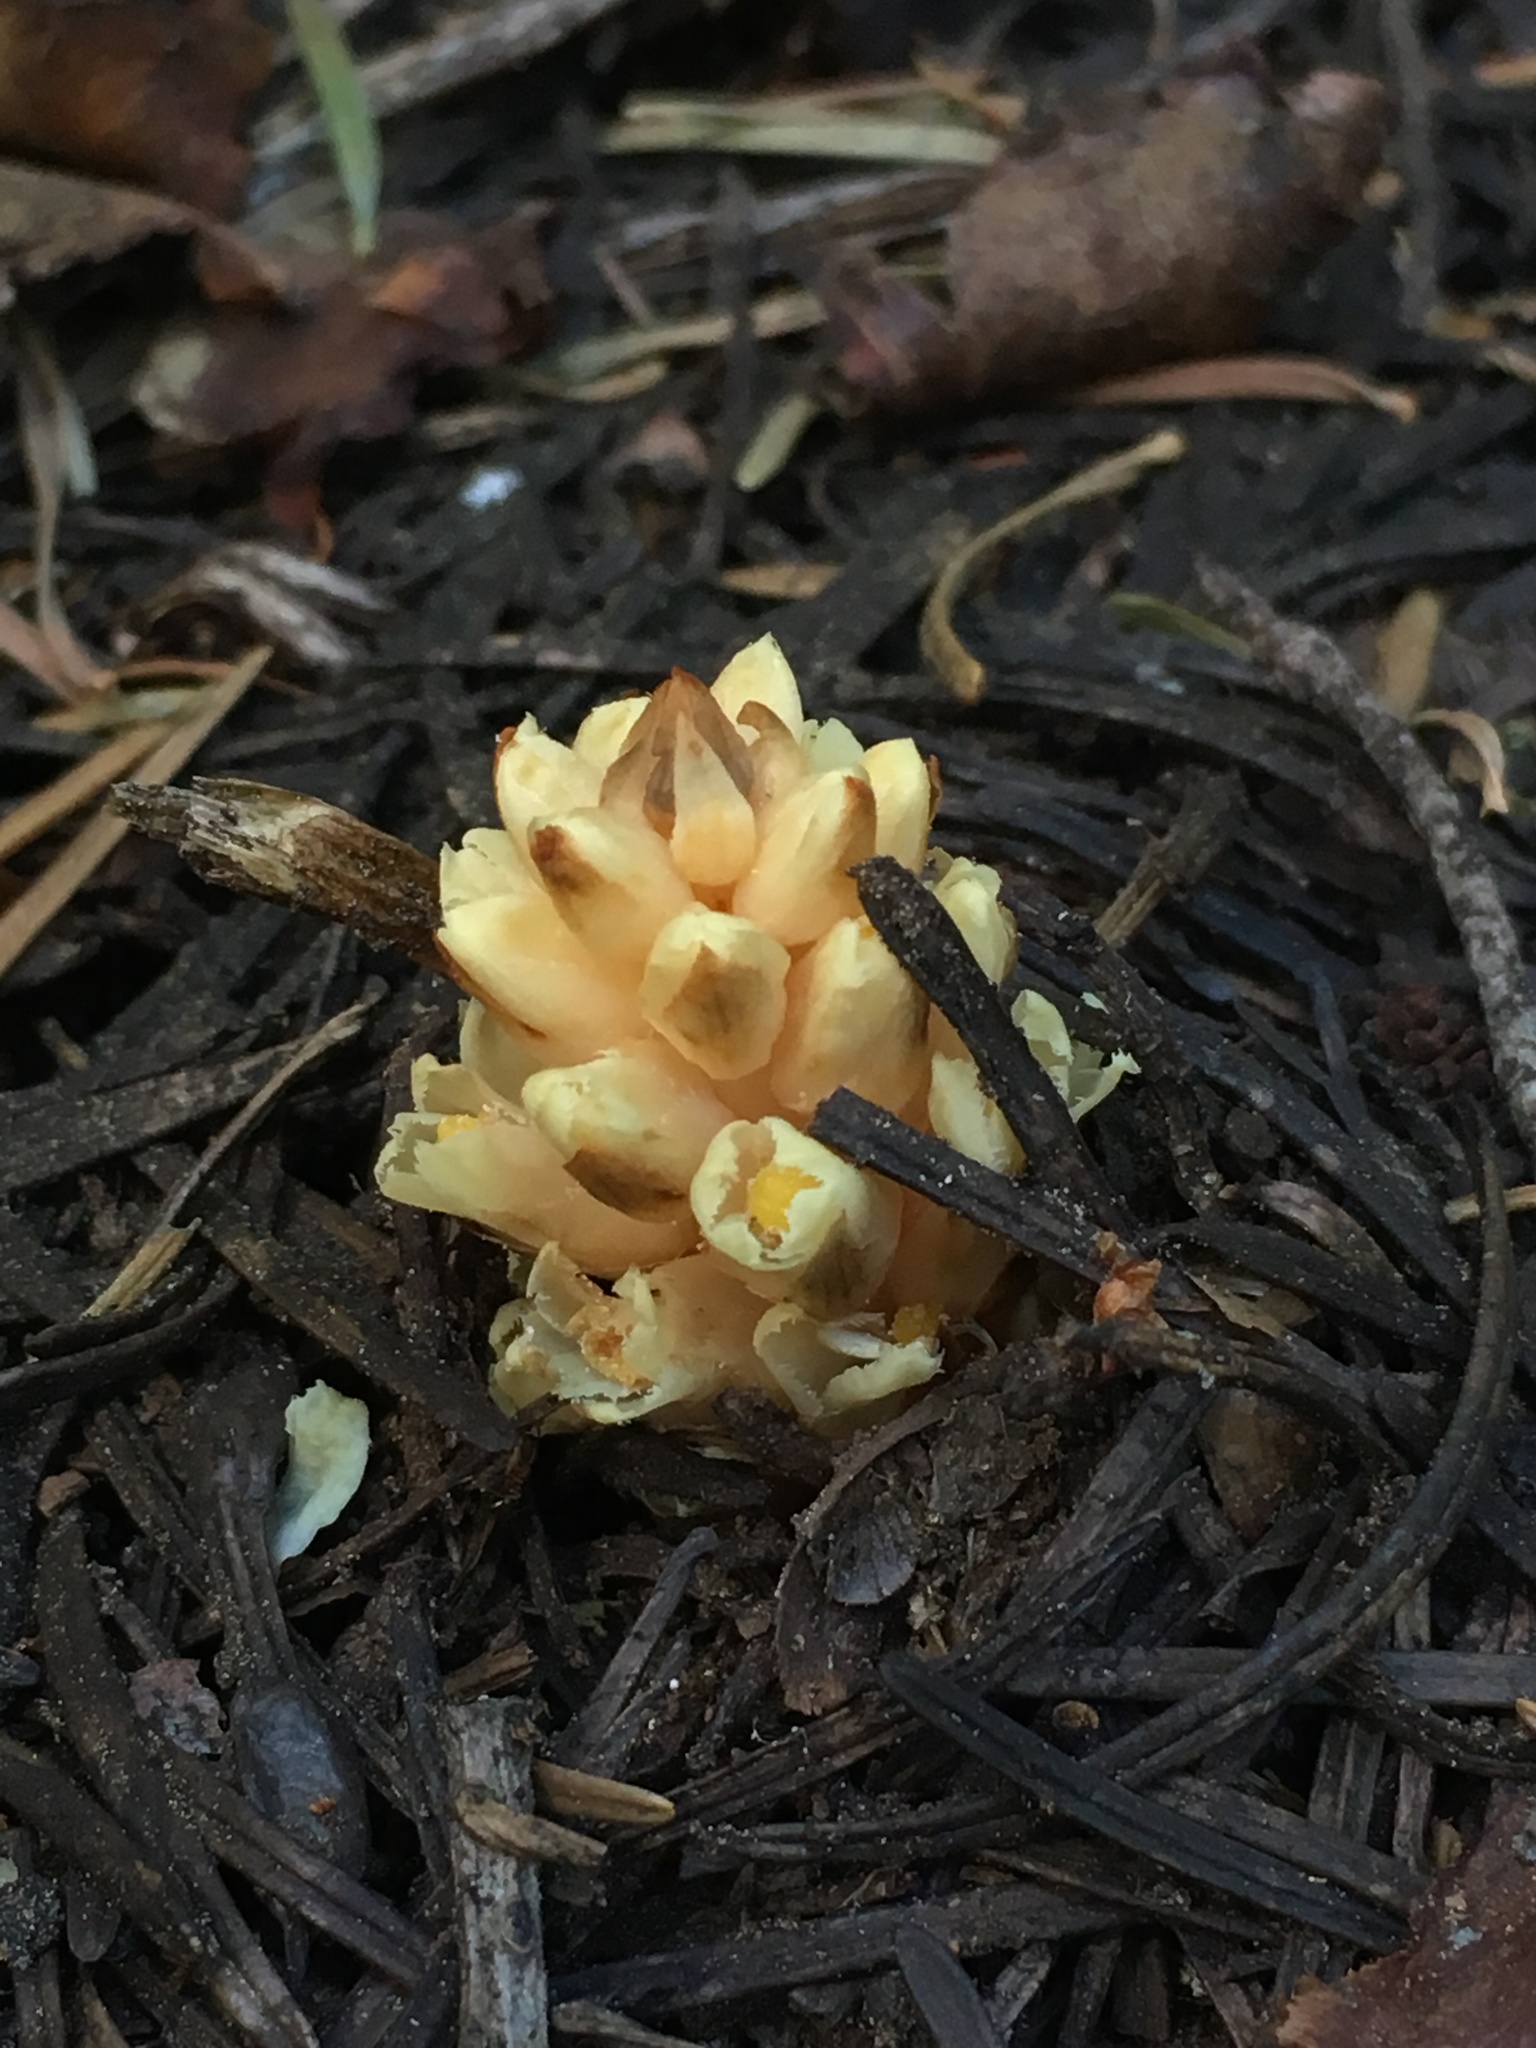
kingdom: Plantae
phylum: Tracheophyta
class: Magnoliopsida
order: Ericales
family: Ericaceae
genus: Pleuricospora
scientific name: Pleuricospora fimbriolata
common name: Fringed pinesap
